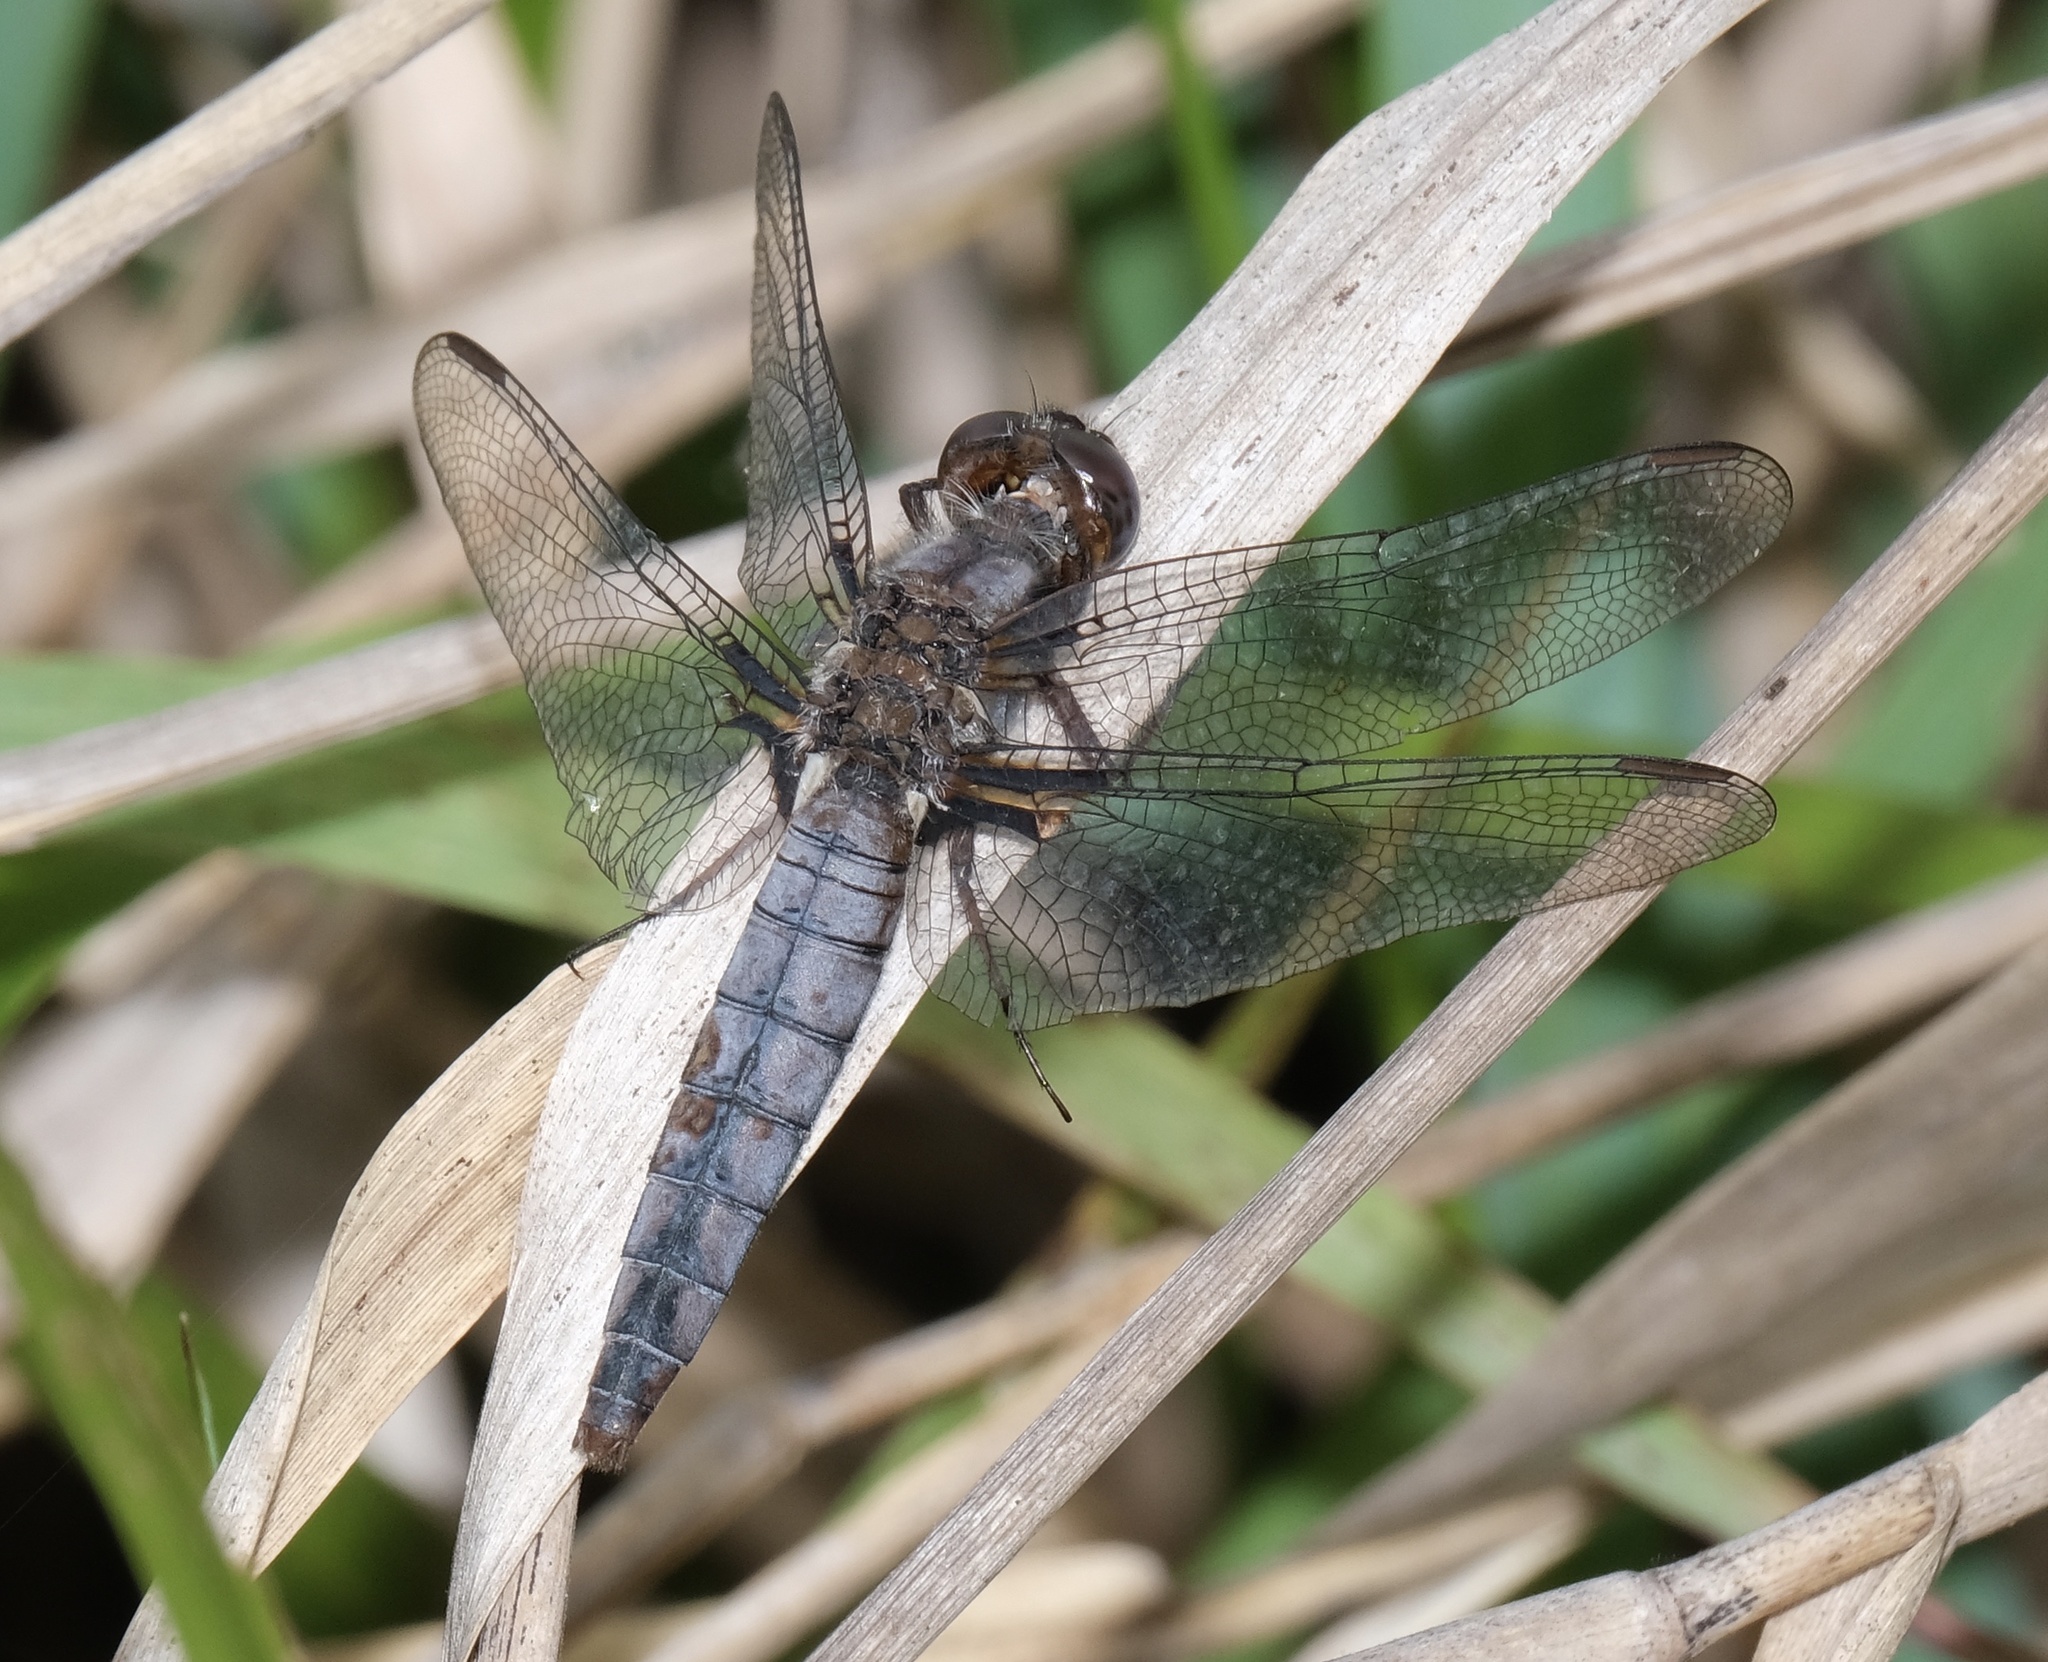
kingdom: Animalia
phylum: Arthropoda
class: Insecta
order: Odonata
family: Libellulidae
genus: Ladona
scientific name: Ladona deplanata
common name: Blue corporal
